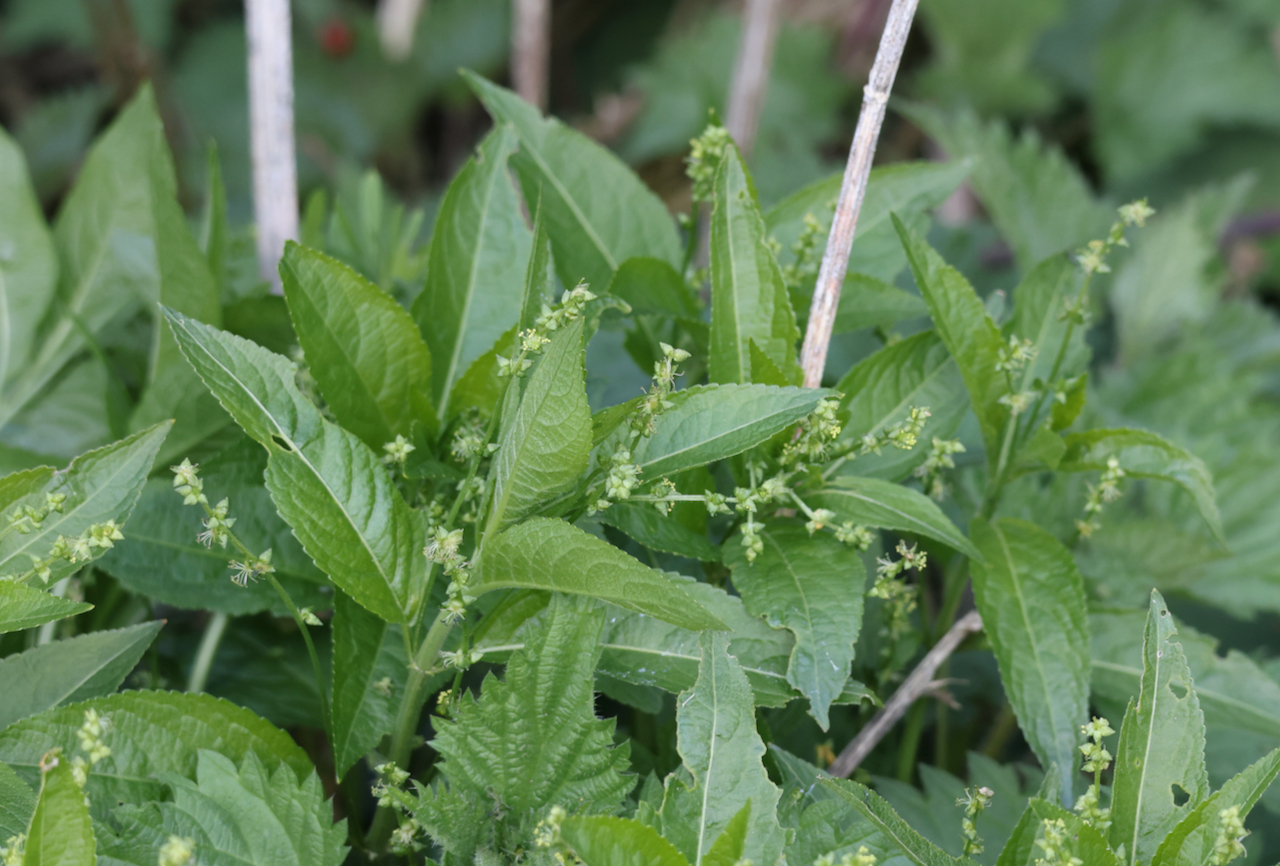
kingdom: Plantae
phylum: Tracheophyta
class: Magnoliopsida
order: Malpighiales
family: Euphorbiaceae
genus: Mercurialis
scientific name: Mercurialis perennis
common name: Dog mercury
